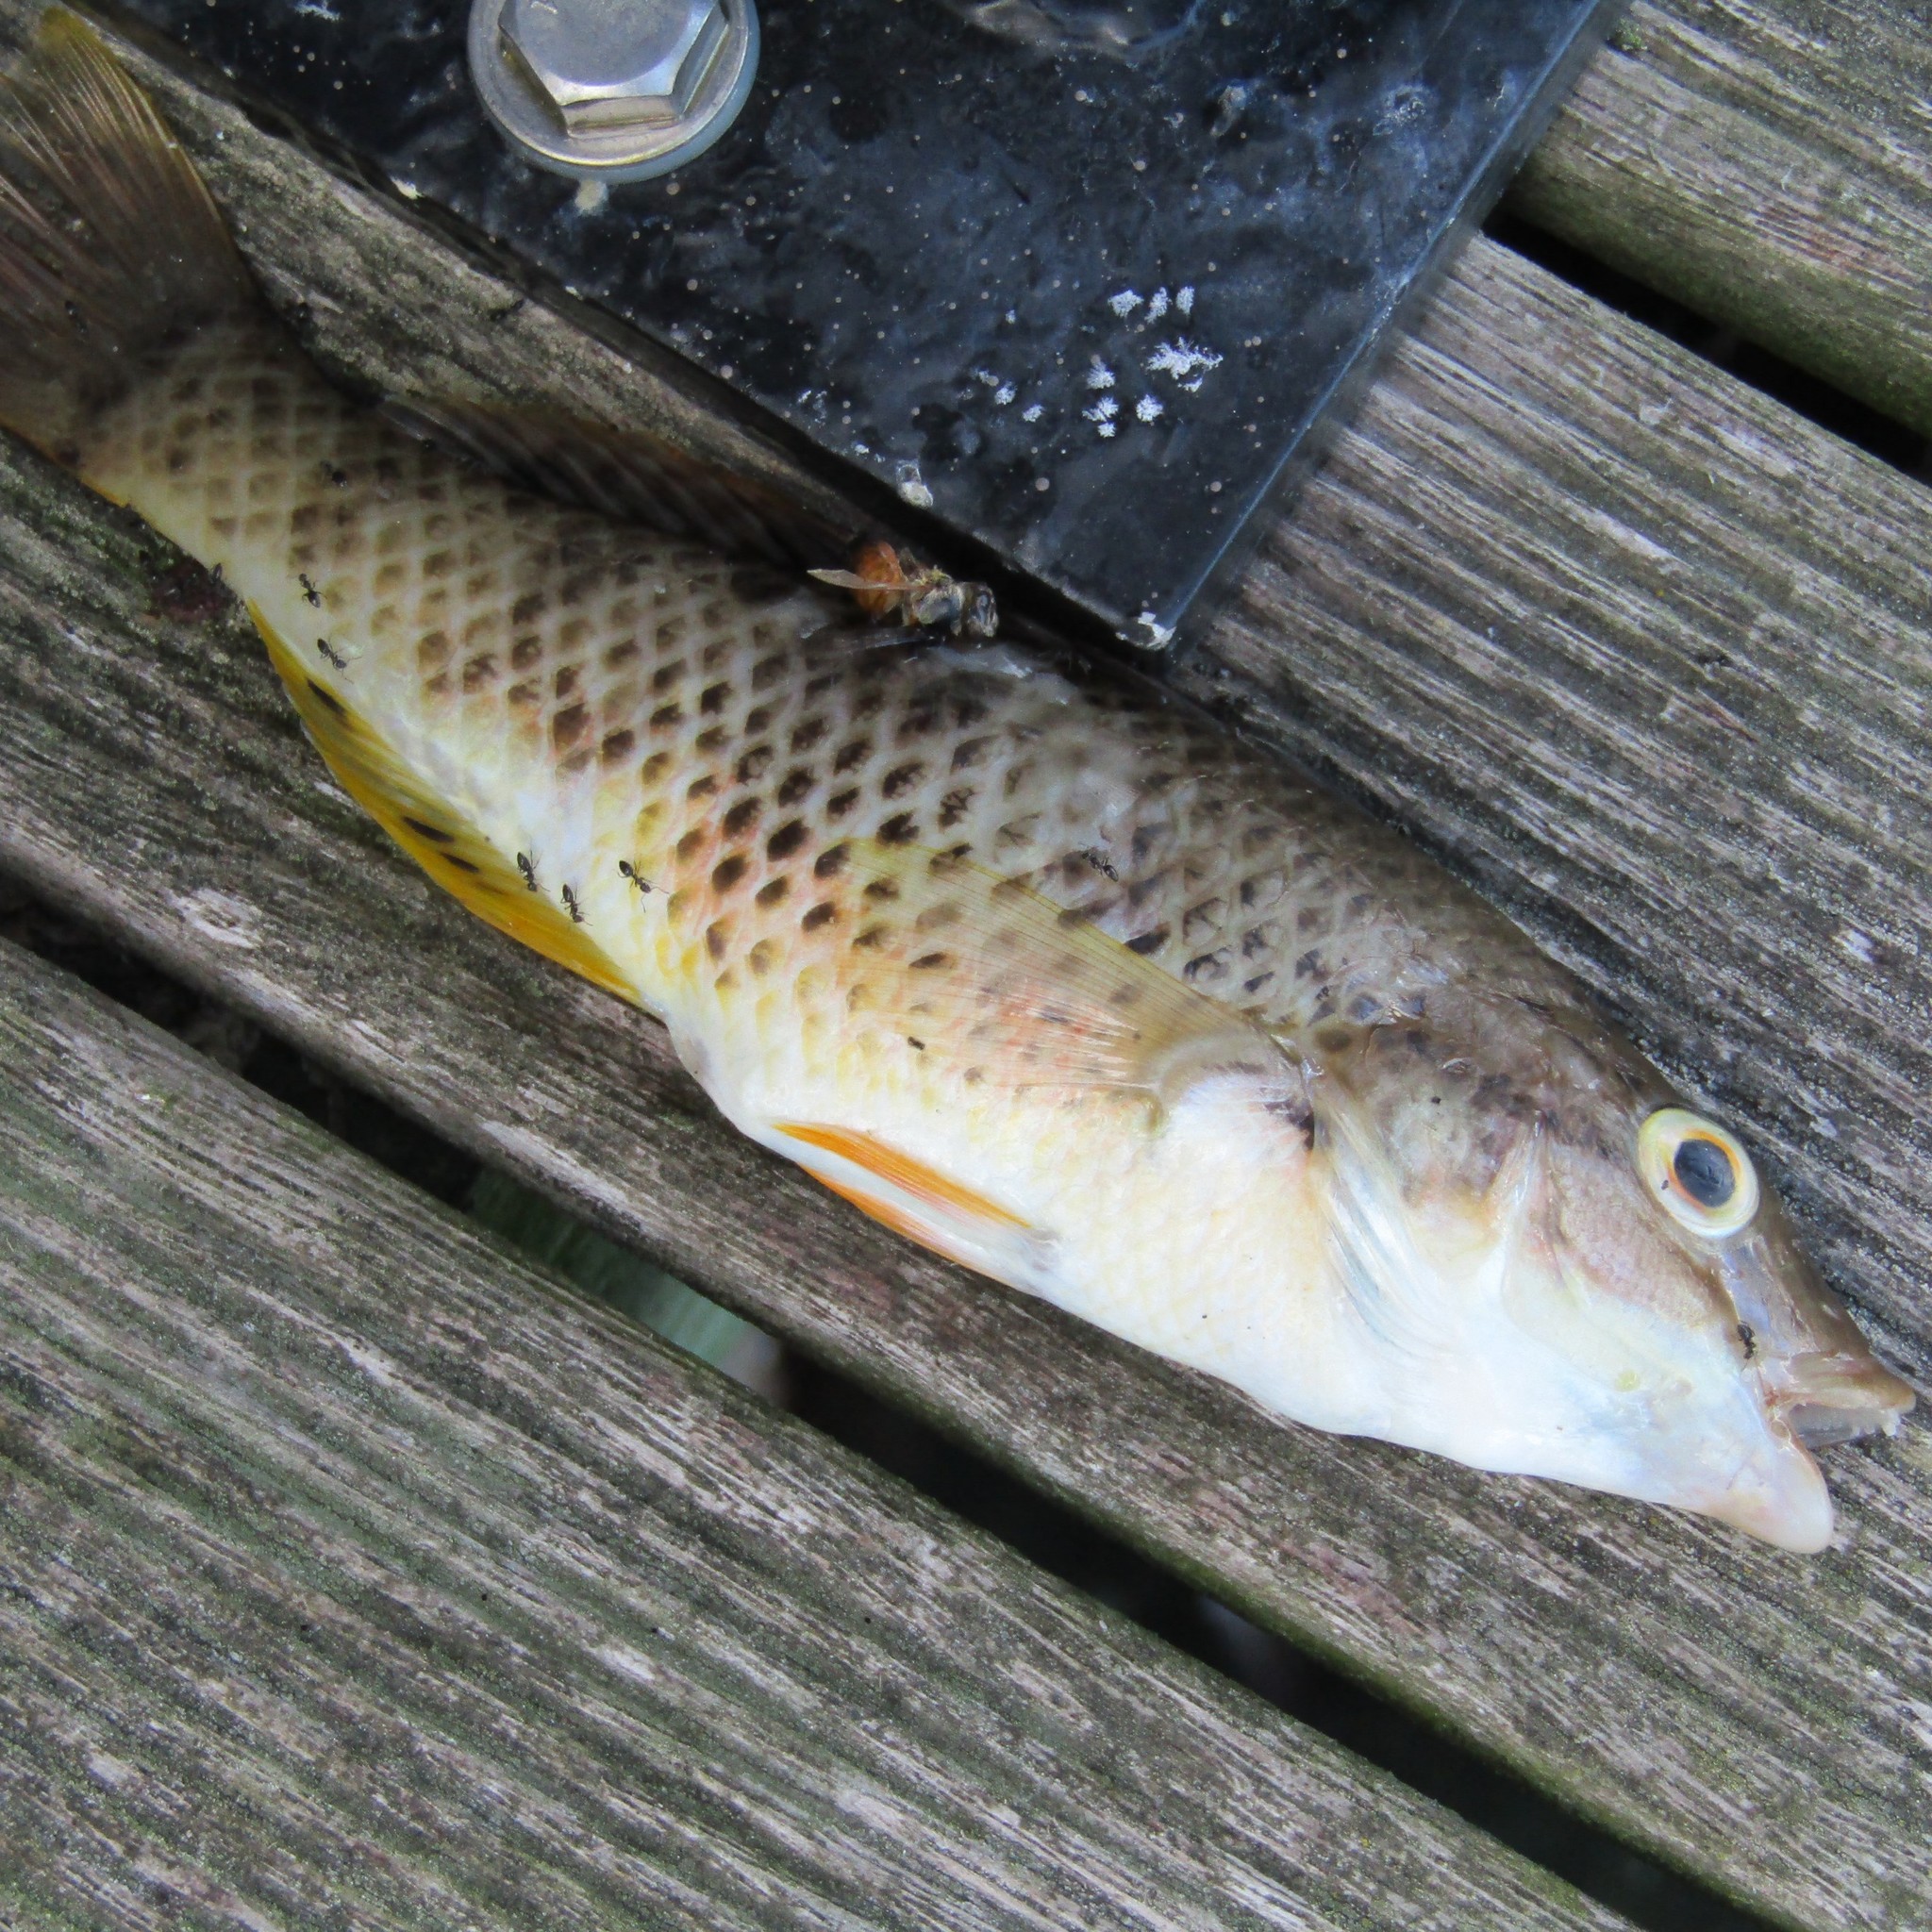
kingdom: Animalia
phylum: Chordata
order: Perciformes
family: Labridae
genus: Notolabrus
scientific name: Notolabrus celidotus
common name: Spotty
